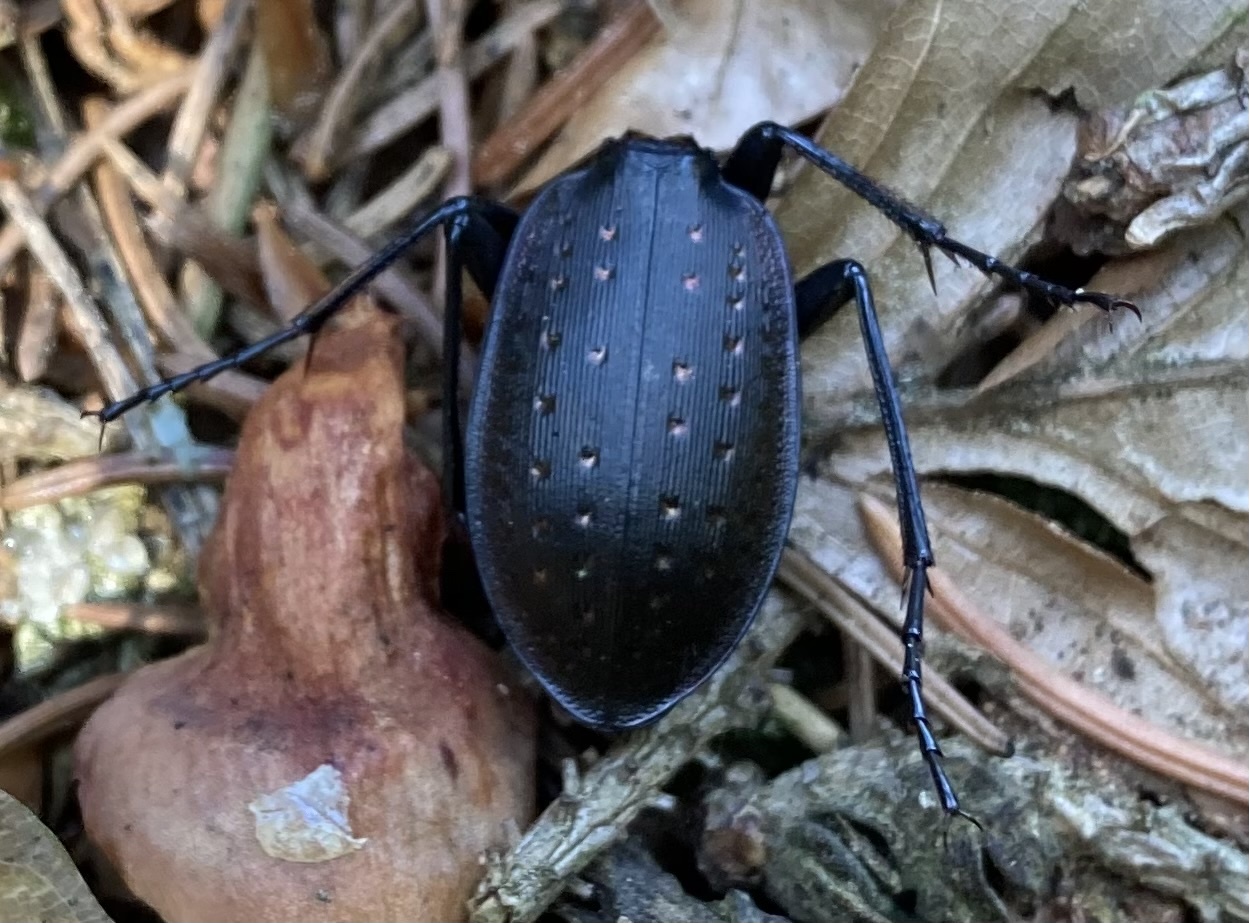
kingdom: Animalia
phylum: Arthropoda
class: Insecta
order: Coleoptera
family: Carabidae
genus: Carabus
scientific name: Carabus hortensis
